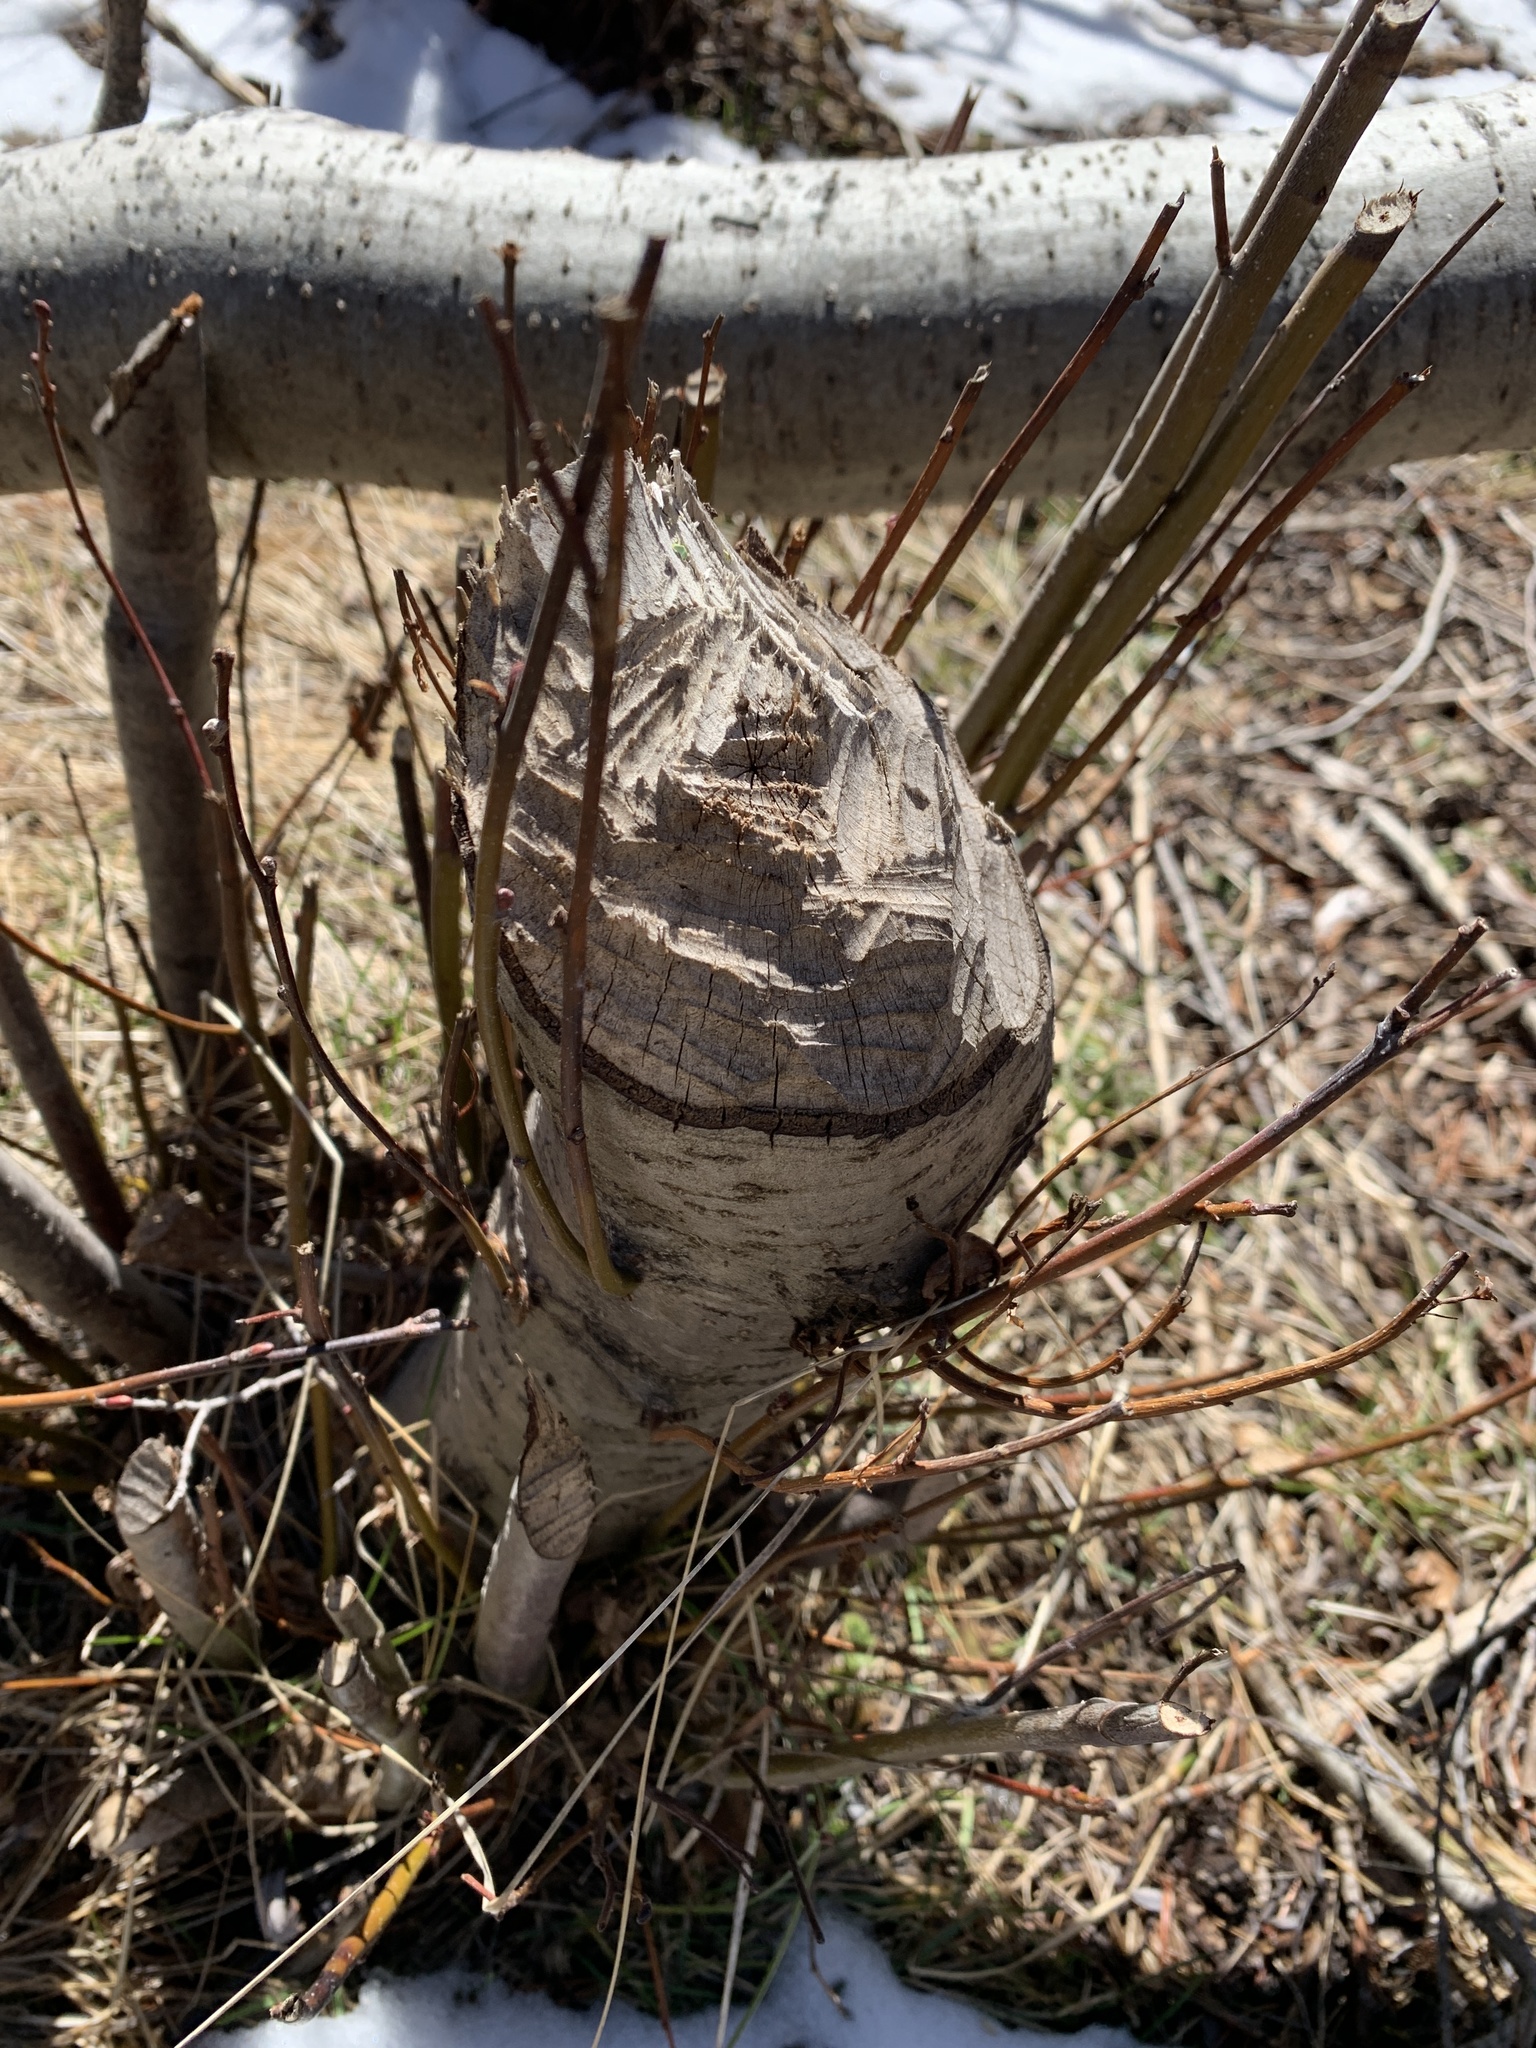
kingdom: Animalia
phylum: Chordata
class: Mammalia
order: Rodentia
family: Castoridae
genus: Castor
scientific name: Castor canadensis
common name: American beaver
